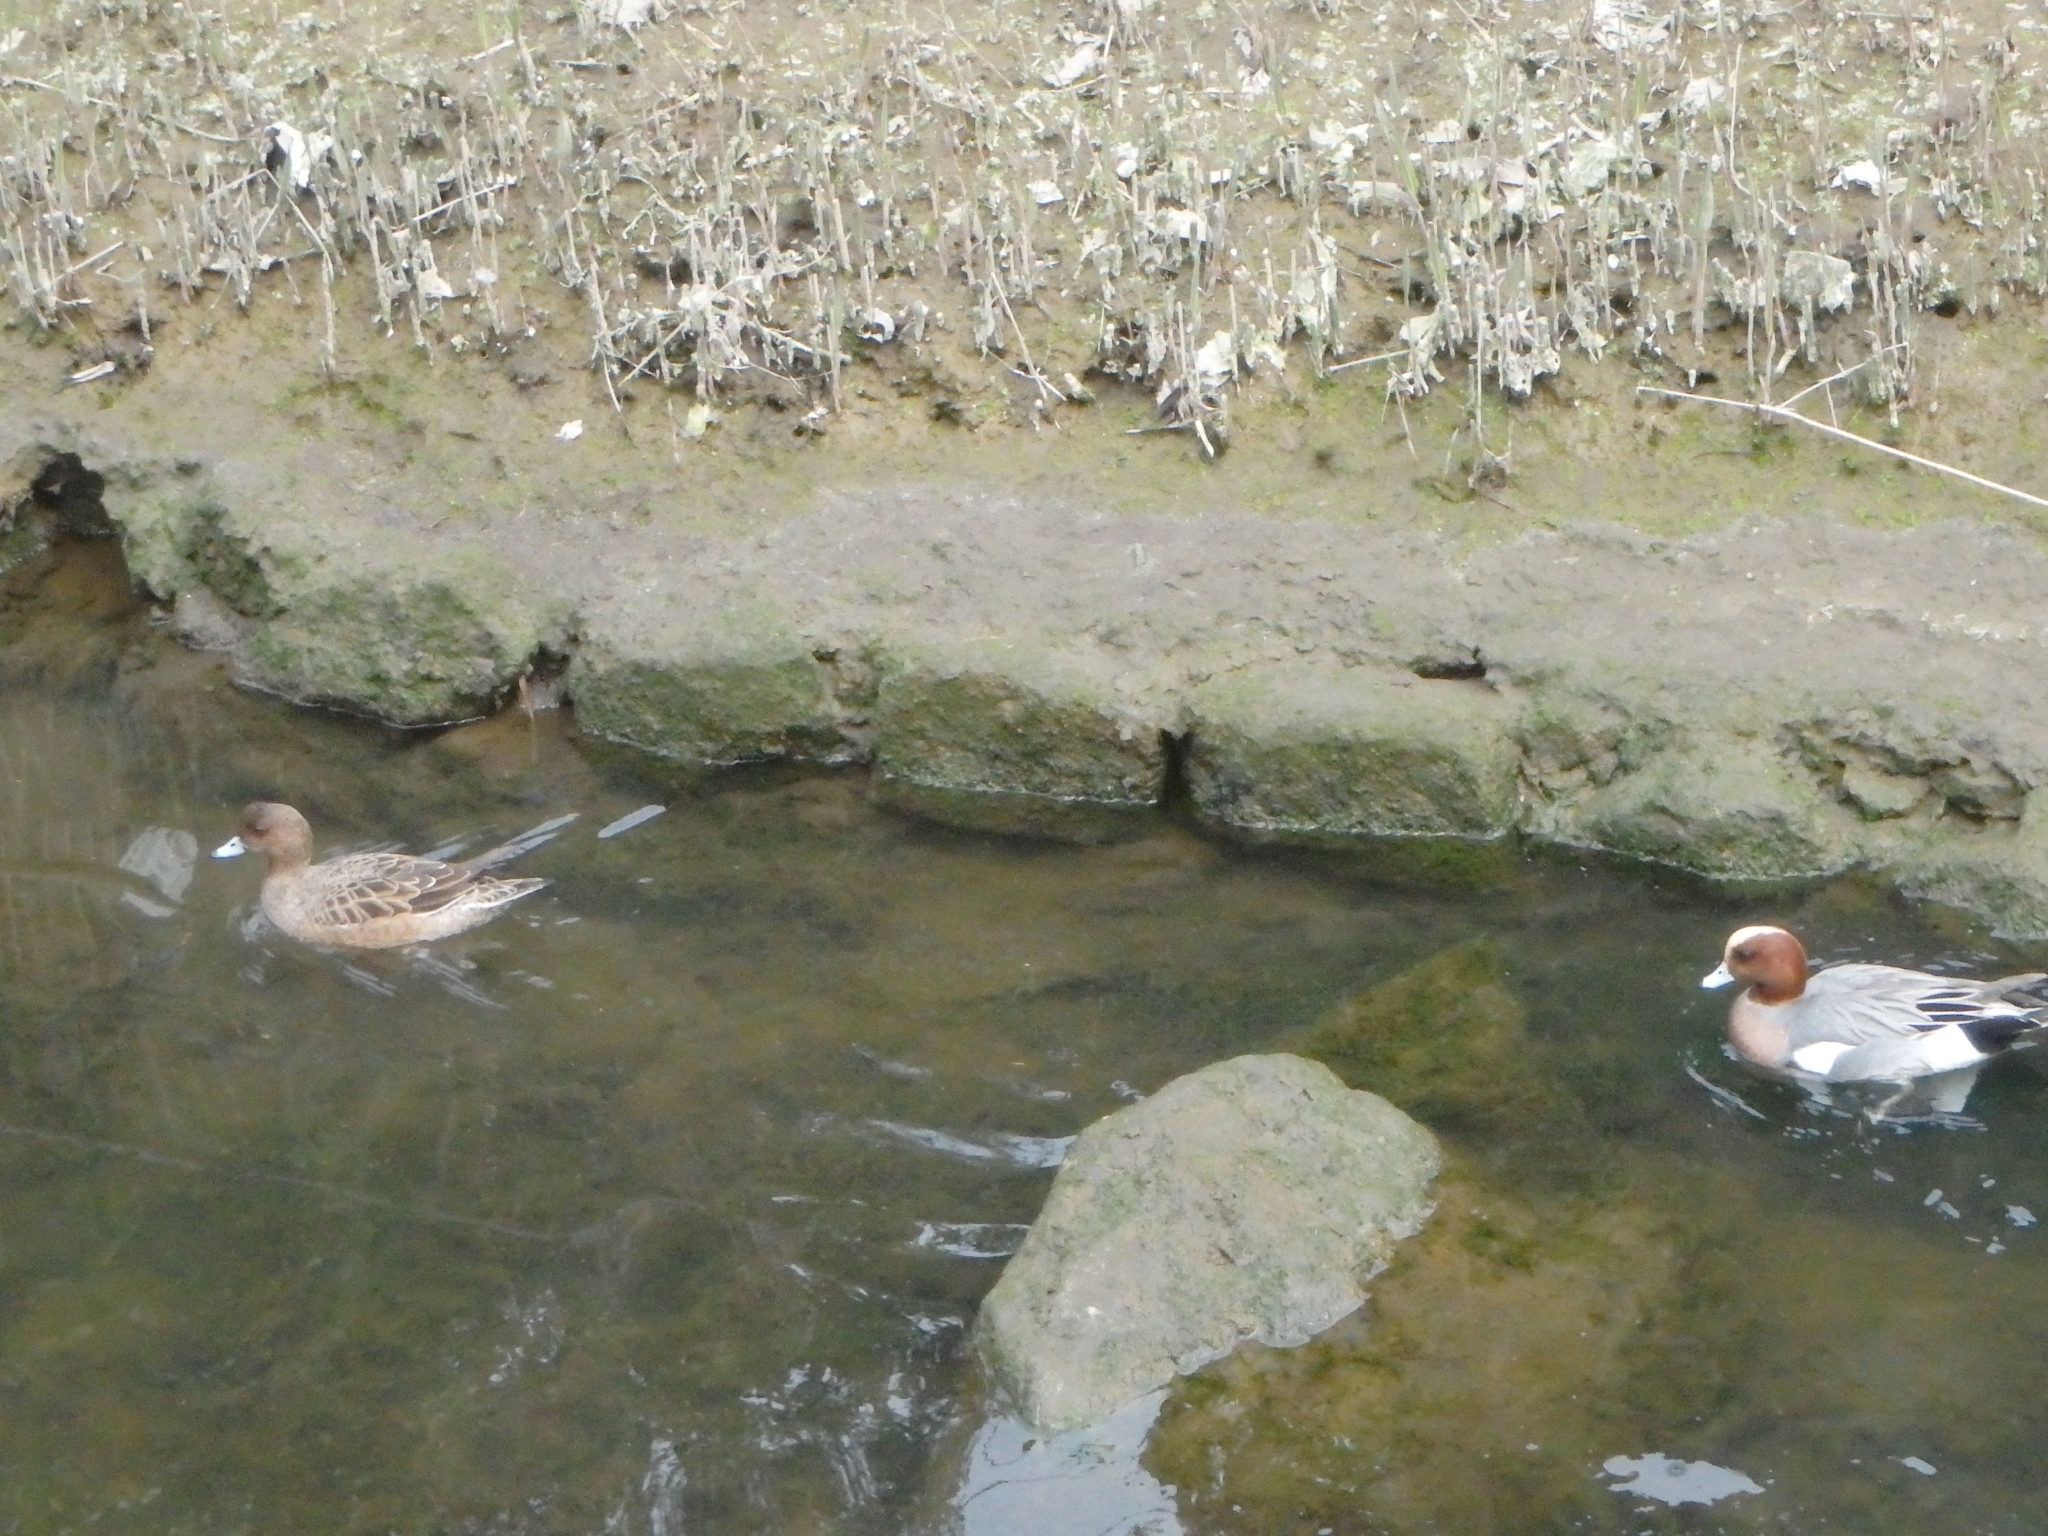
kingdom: Animalia
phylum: Chordata
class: Aves
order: Anseriformes
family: Anatidae
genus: Mareca
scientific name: Mareca penelope
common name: Eurasian wigeon
